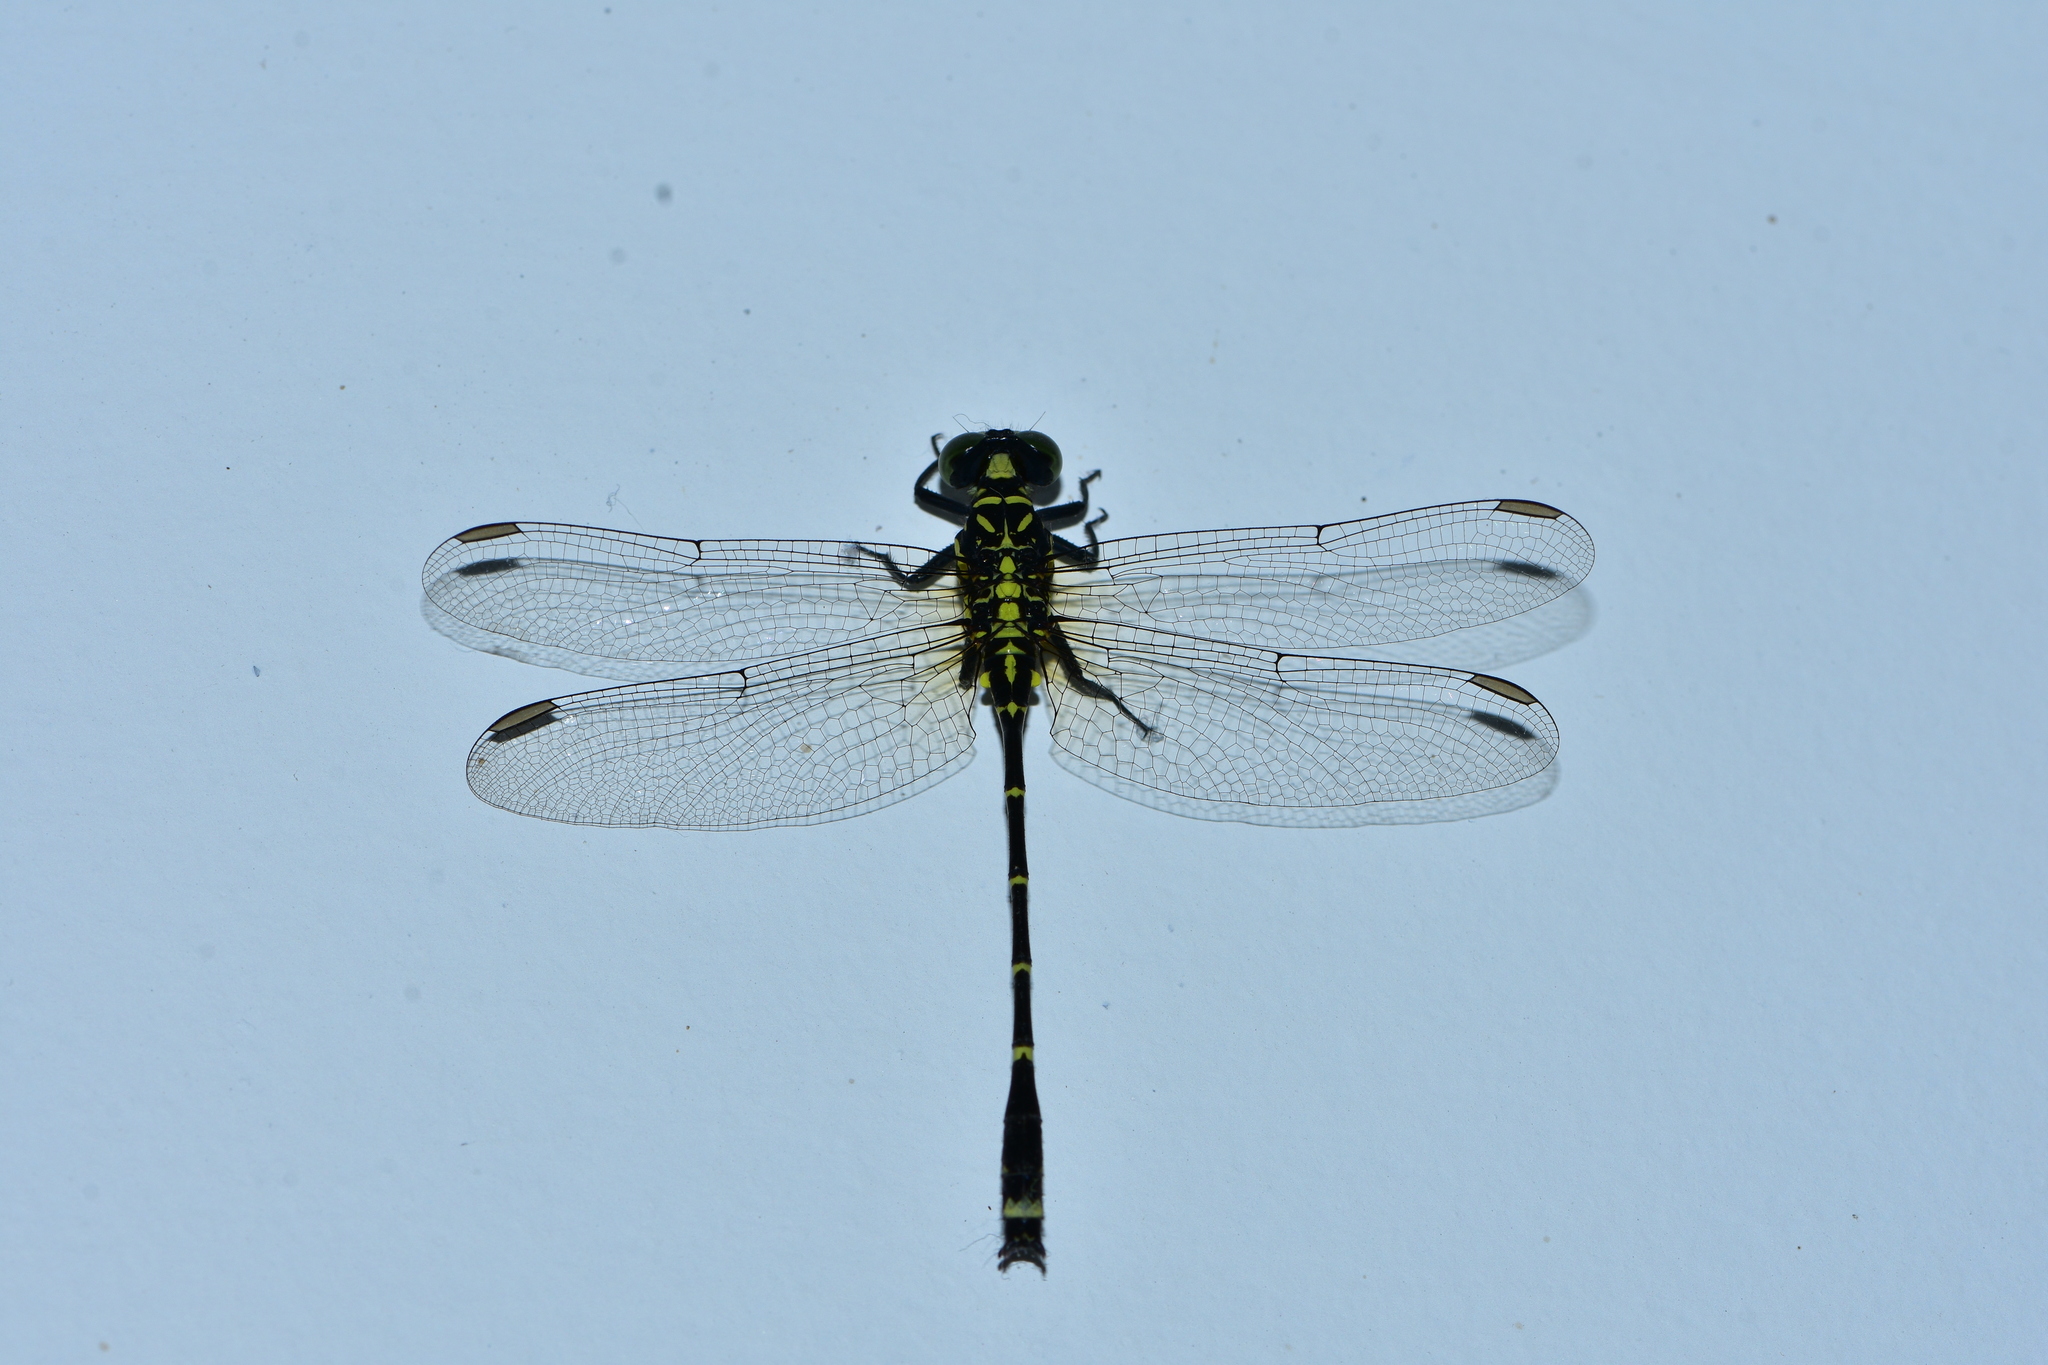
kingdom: Animalia
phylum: Arthropoda
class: Insecta
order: Odonata
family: Gomphidae
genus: Burmagomphus
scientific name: Burmagomphus laidlawi
